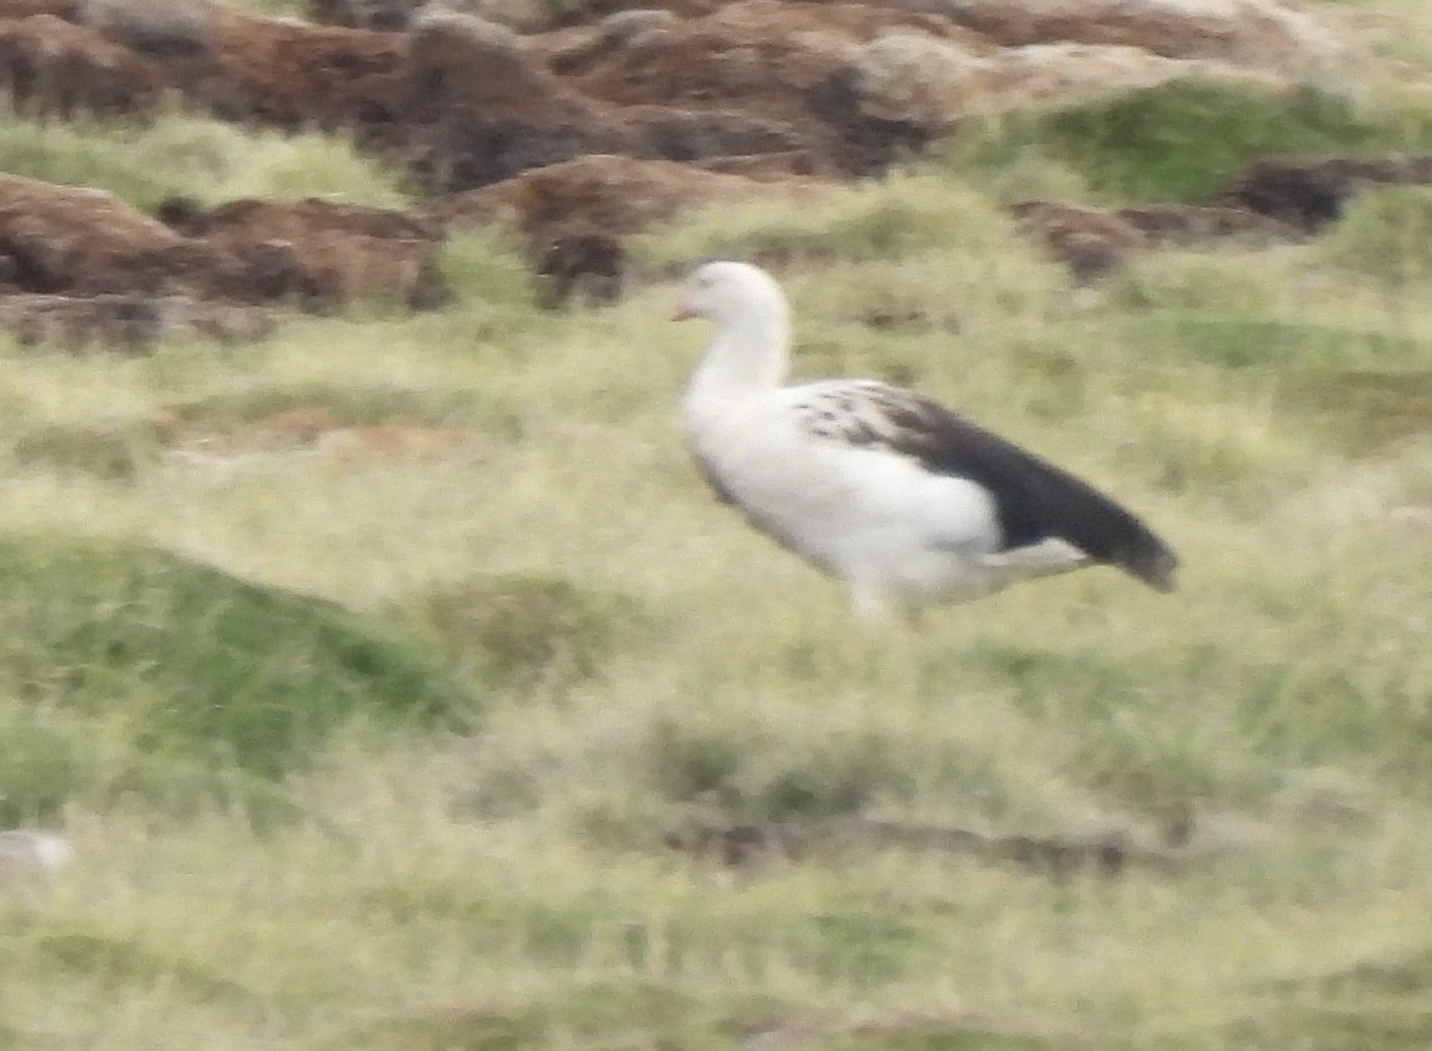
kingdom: Animalia
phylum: Chordata
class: Aves
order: Anseriformes
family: Anatidae
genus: Chloephaga
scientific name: Chloephaga melanoptera
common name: Andean goose
